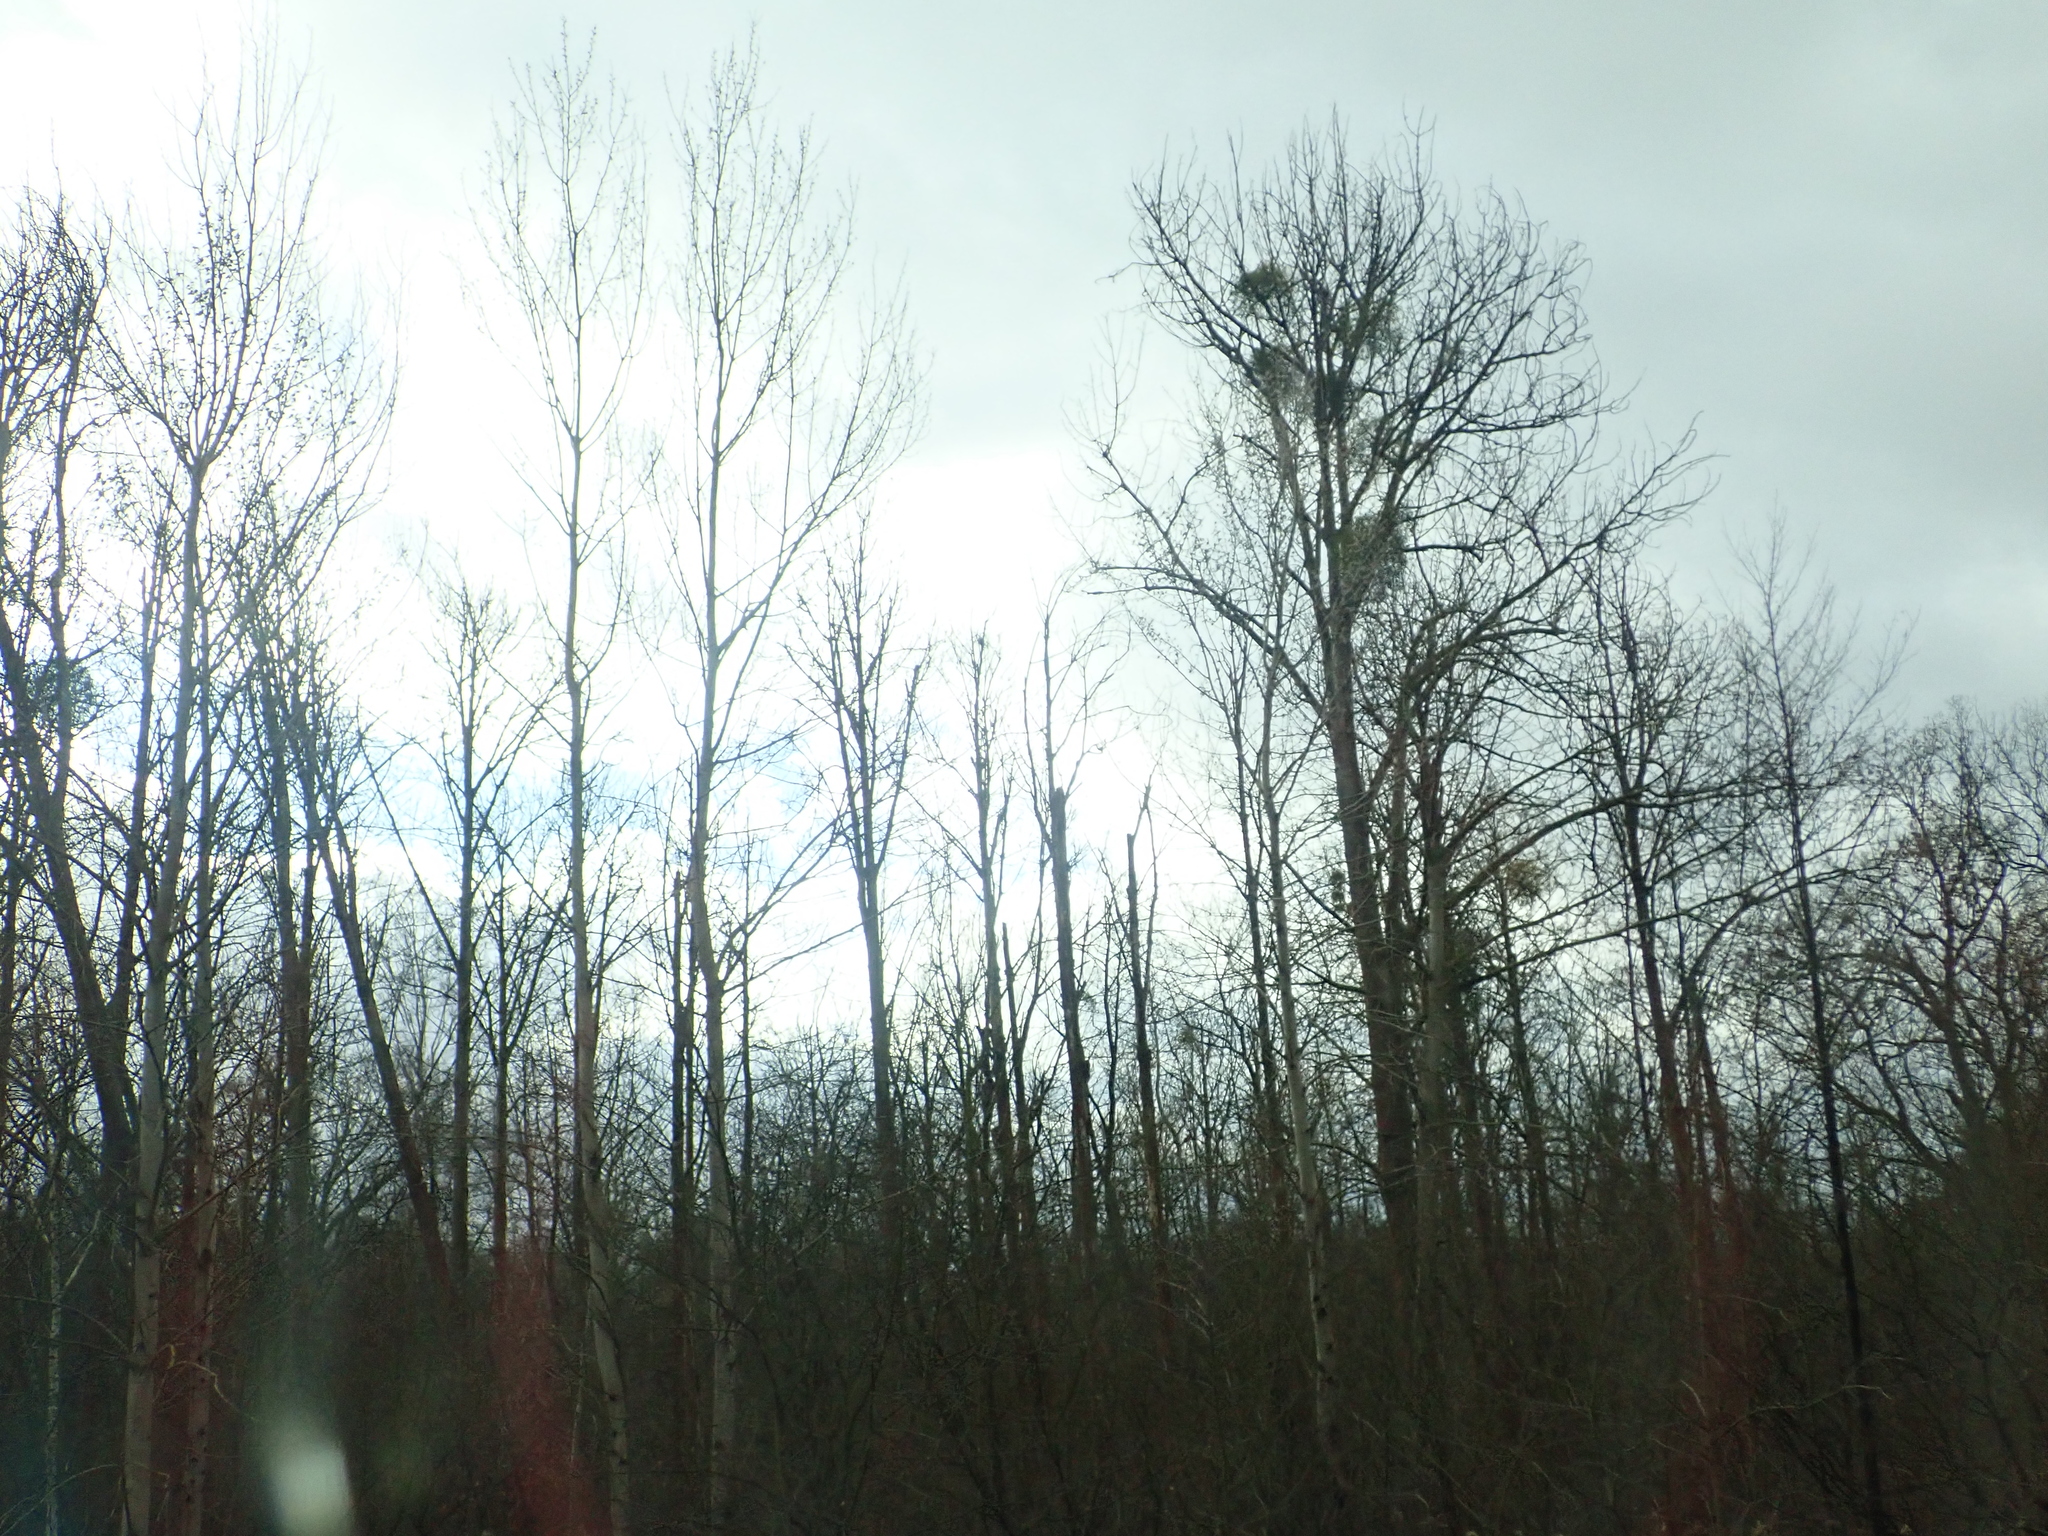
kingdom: Plantae
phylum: Tracheophyta
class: Magnoliopsida
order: Santalales
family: Viscaceae
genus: Viscum
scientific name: Viscum album
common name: Mistletoe
